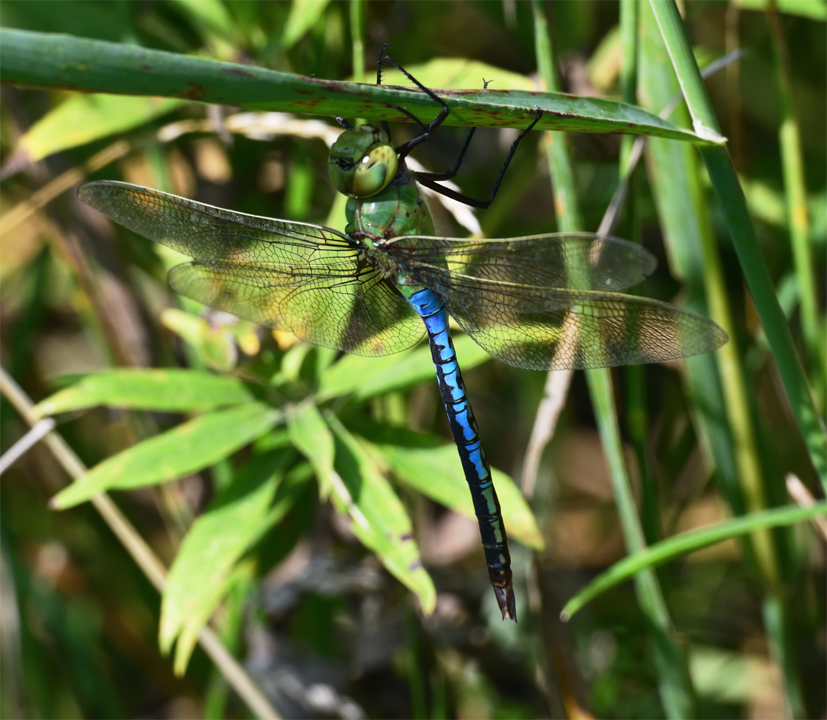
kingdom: Animalia
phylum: Arthropoda
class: Insecta
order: Odonata
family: Aeshnidae
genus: Anax
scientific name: Anax junius
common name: Common green darner
